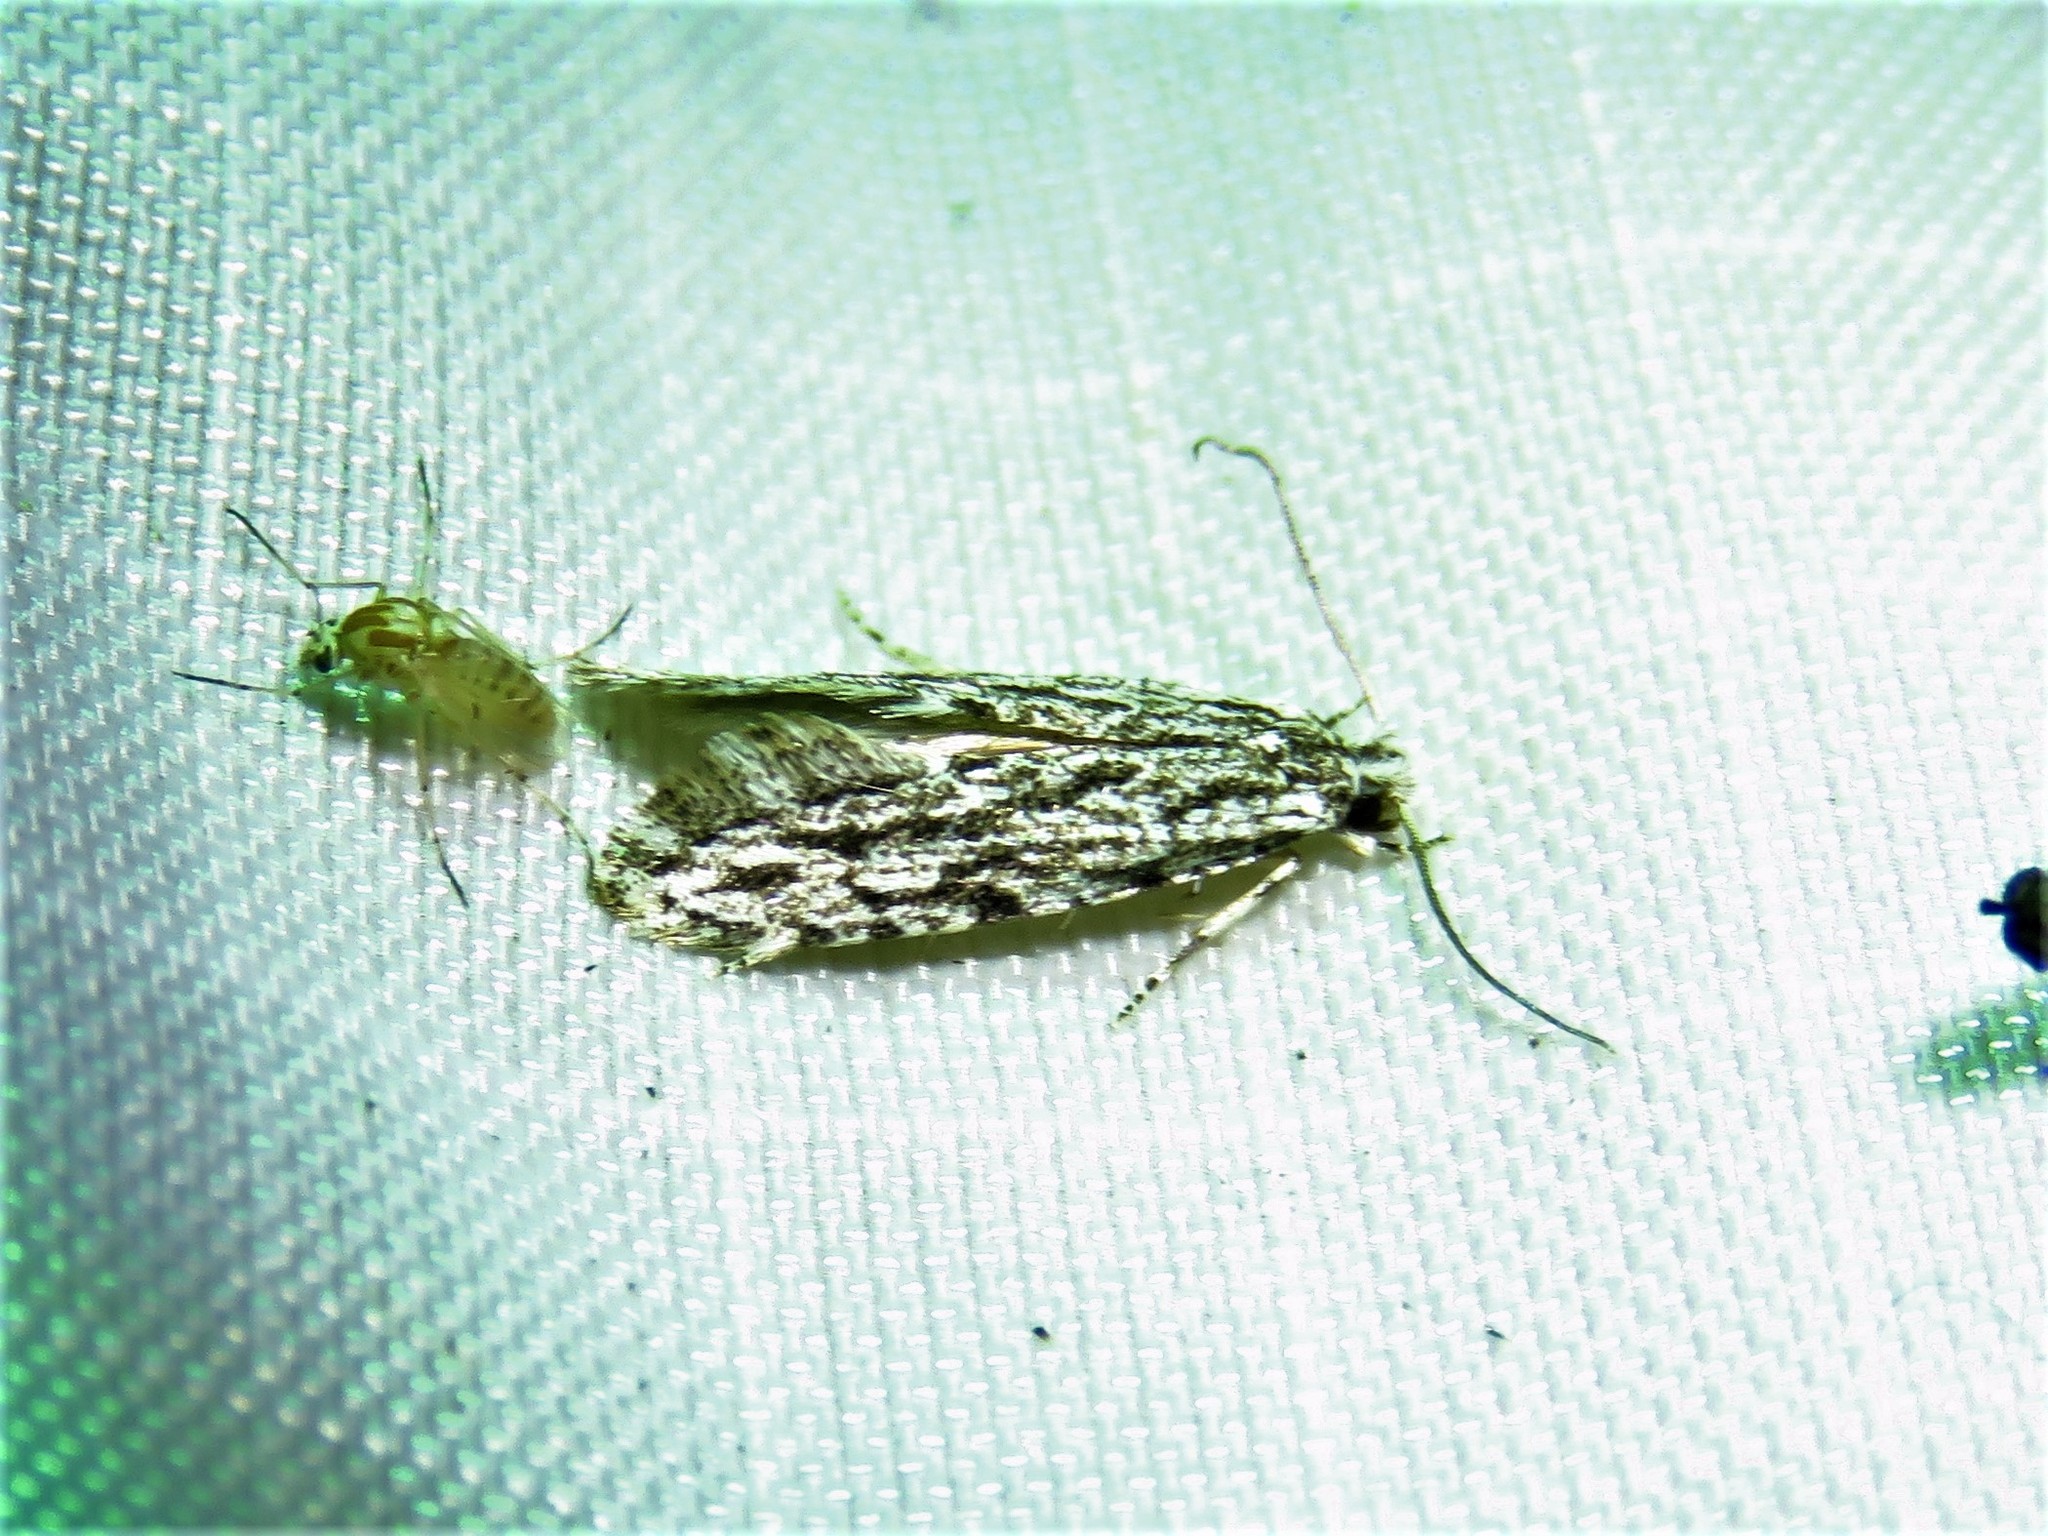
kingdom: Animalia
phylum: Arthropoda
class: Insecta
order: Lepidoptera
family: Tineidae
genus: Nemapogon
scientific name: Nemapogon multistriatella
